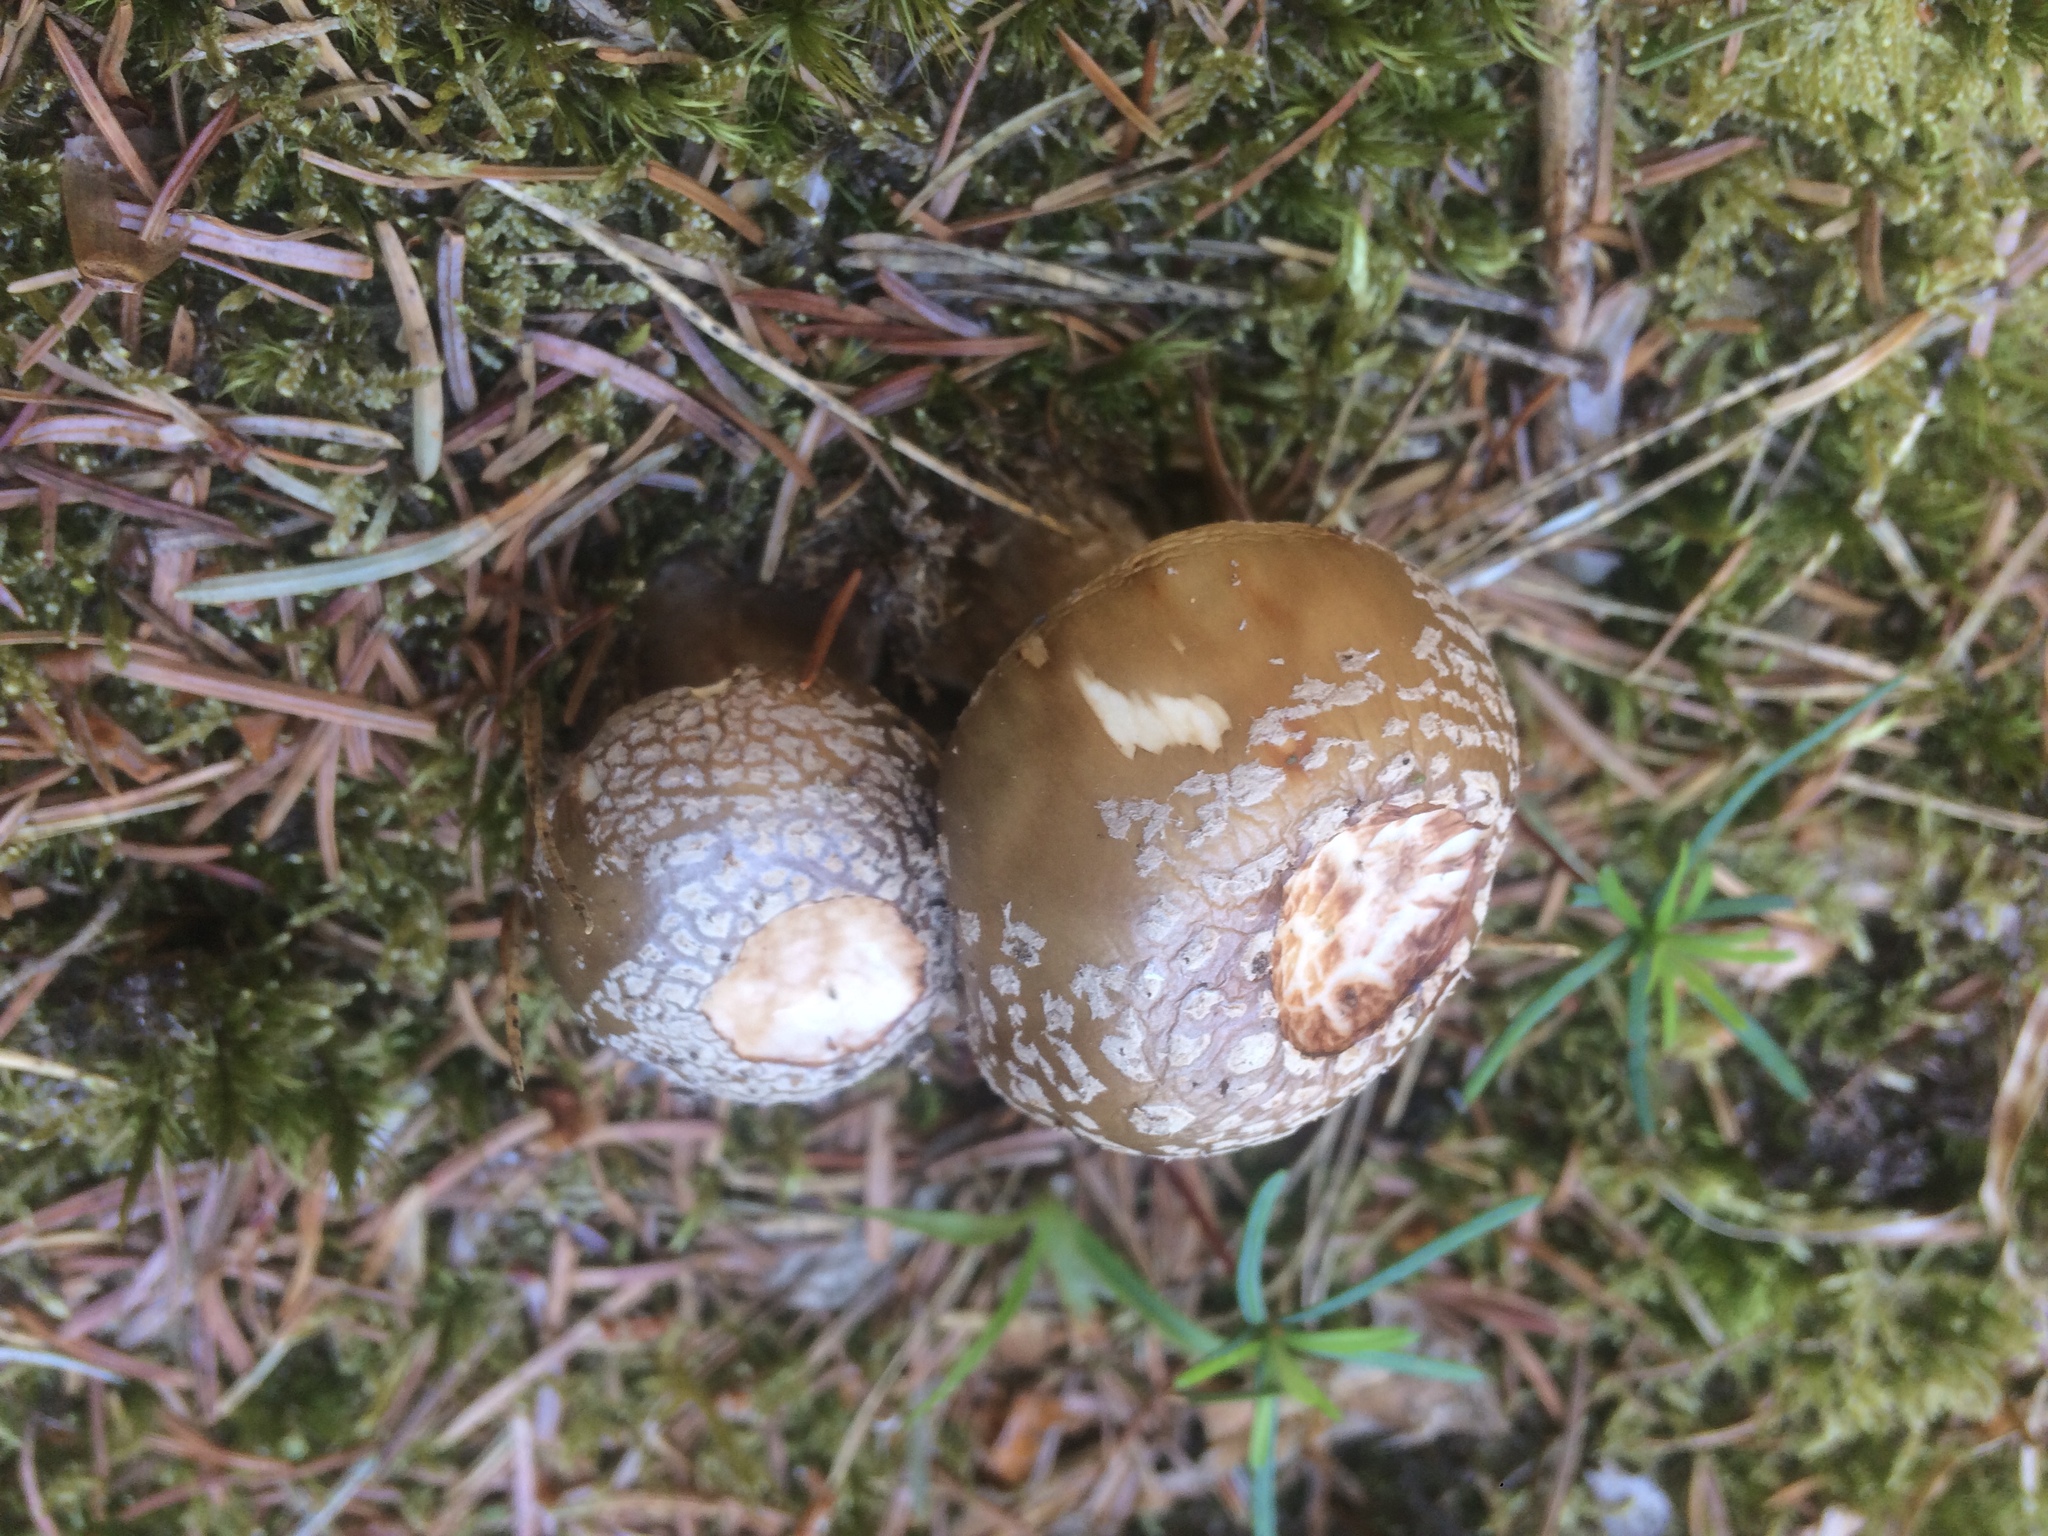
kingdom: Fungi
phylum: Basidiomycota
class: Agaricomycetes
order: Agaricales
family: Amanitaceae
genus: Amanita
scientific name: Amanita rubescens
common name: Blusher
